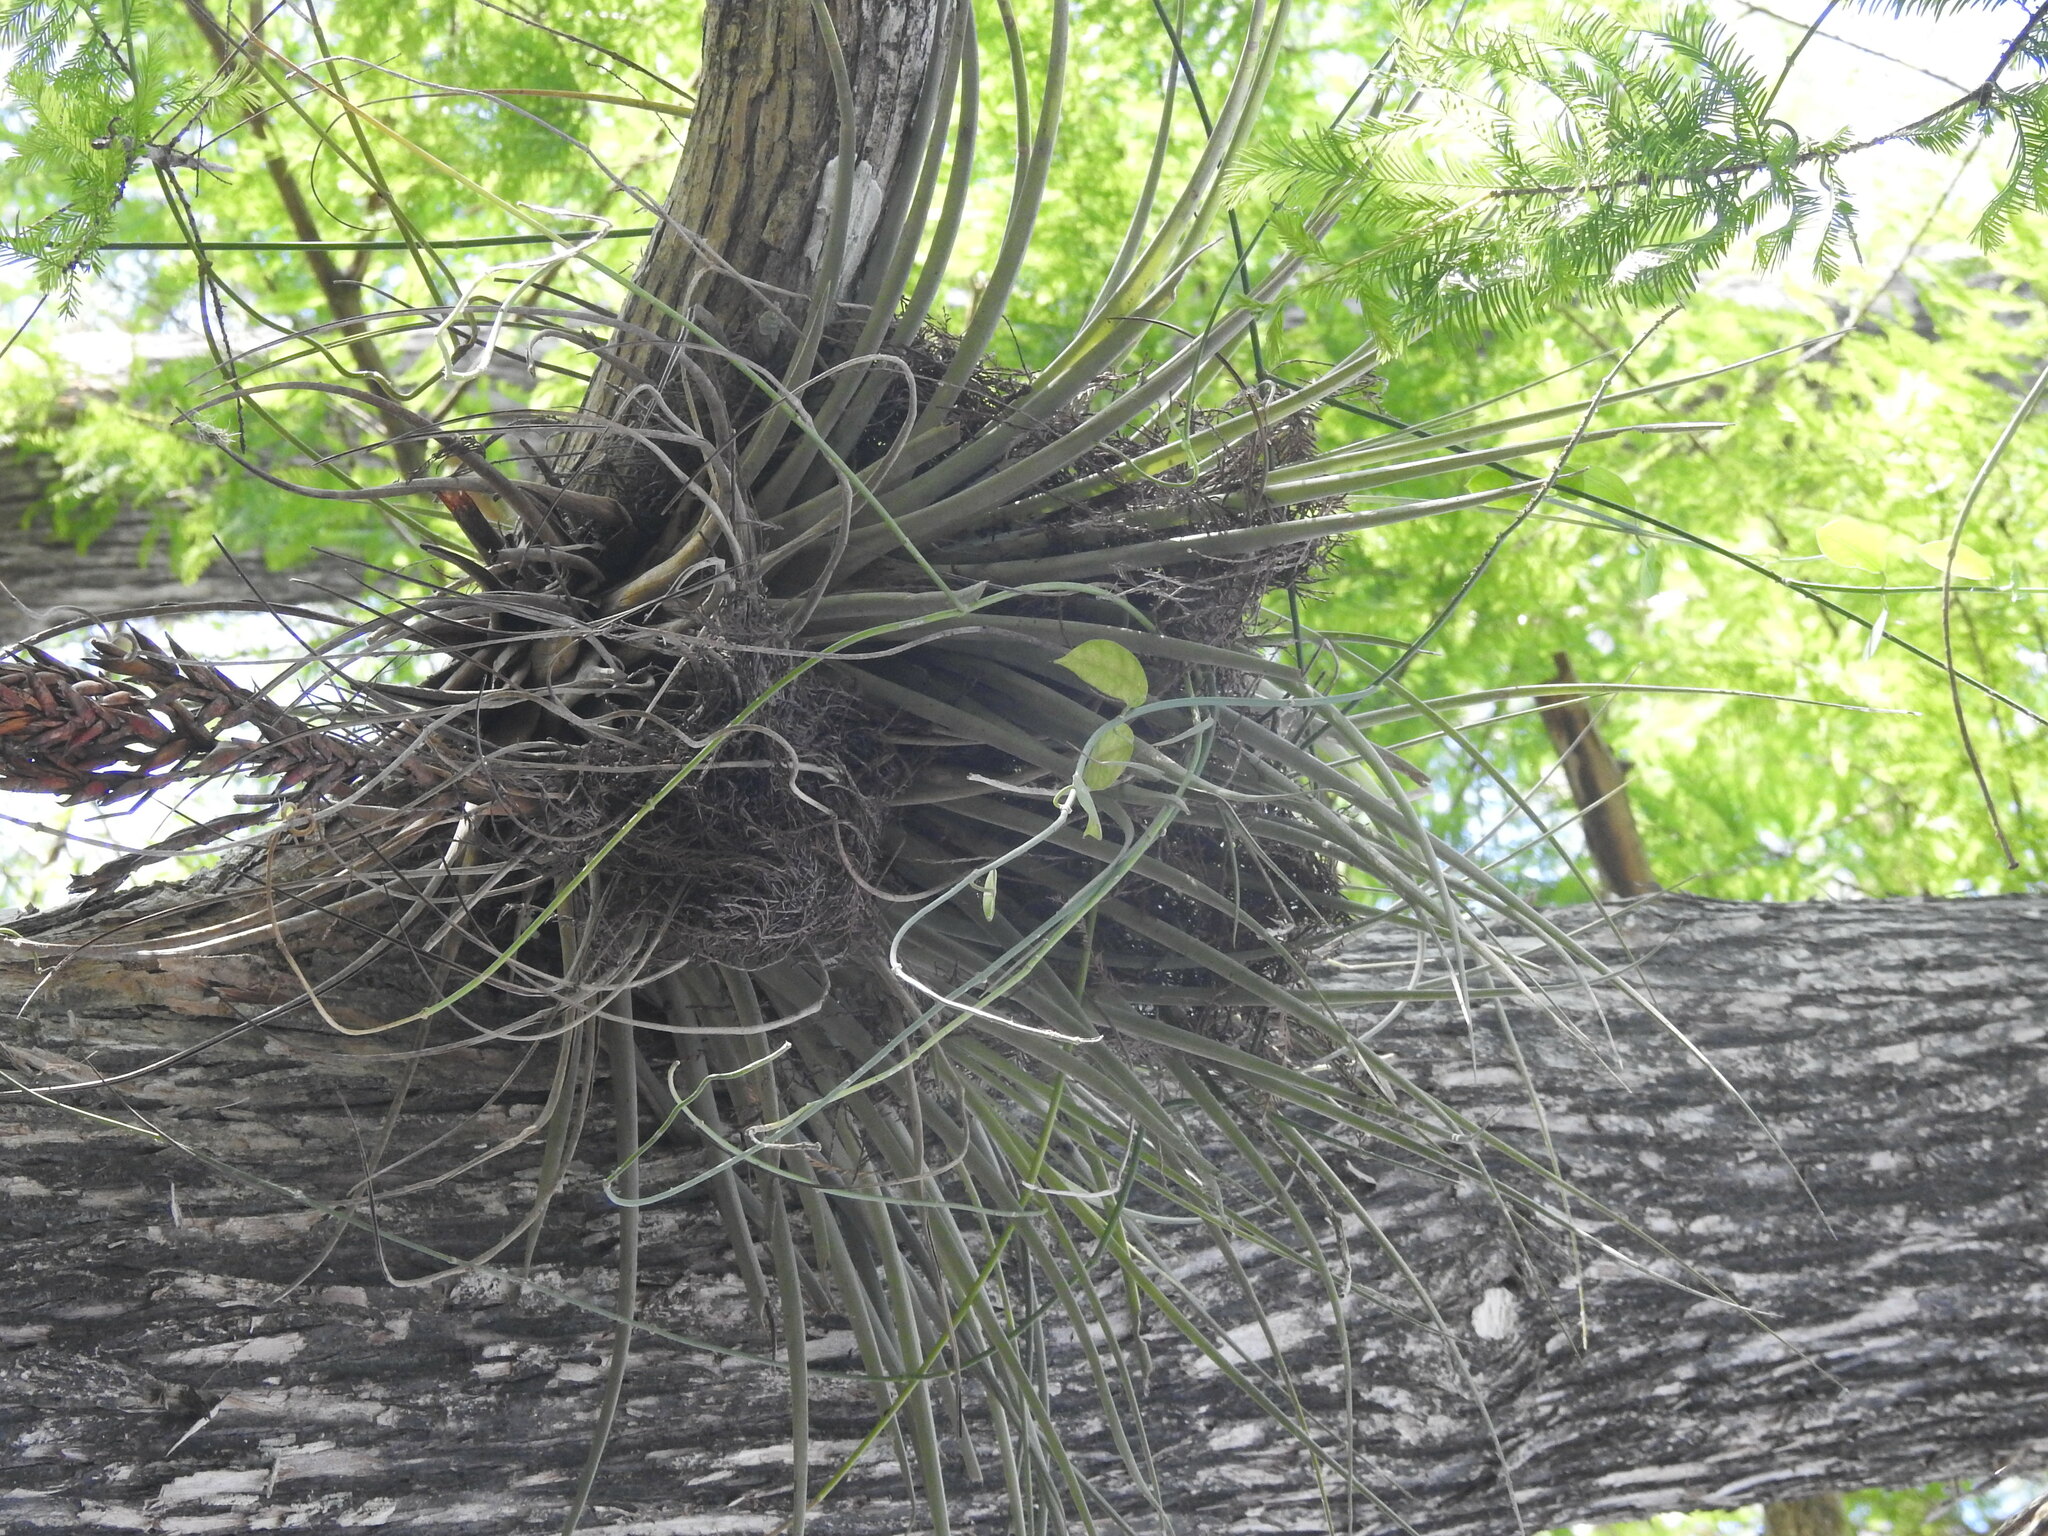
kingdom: Plantae
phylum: Tracheophyta
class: Liliopsida
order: Poales
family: Bromeliaceae
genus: Tillandsia
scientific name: Tillandsia fasciculata
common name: Giant airplant
